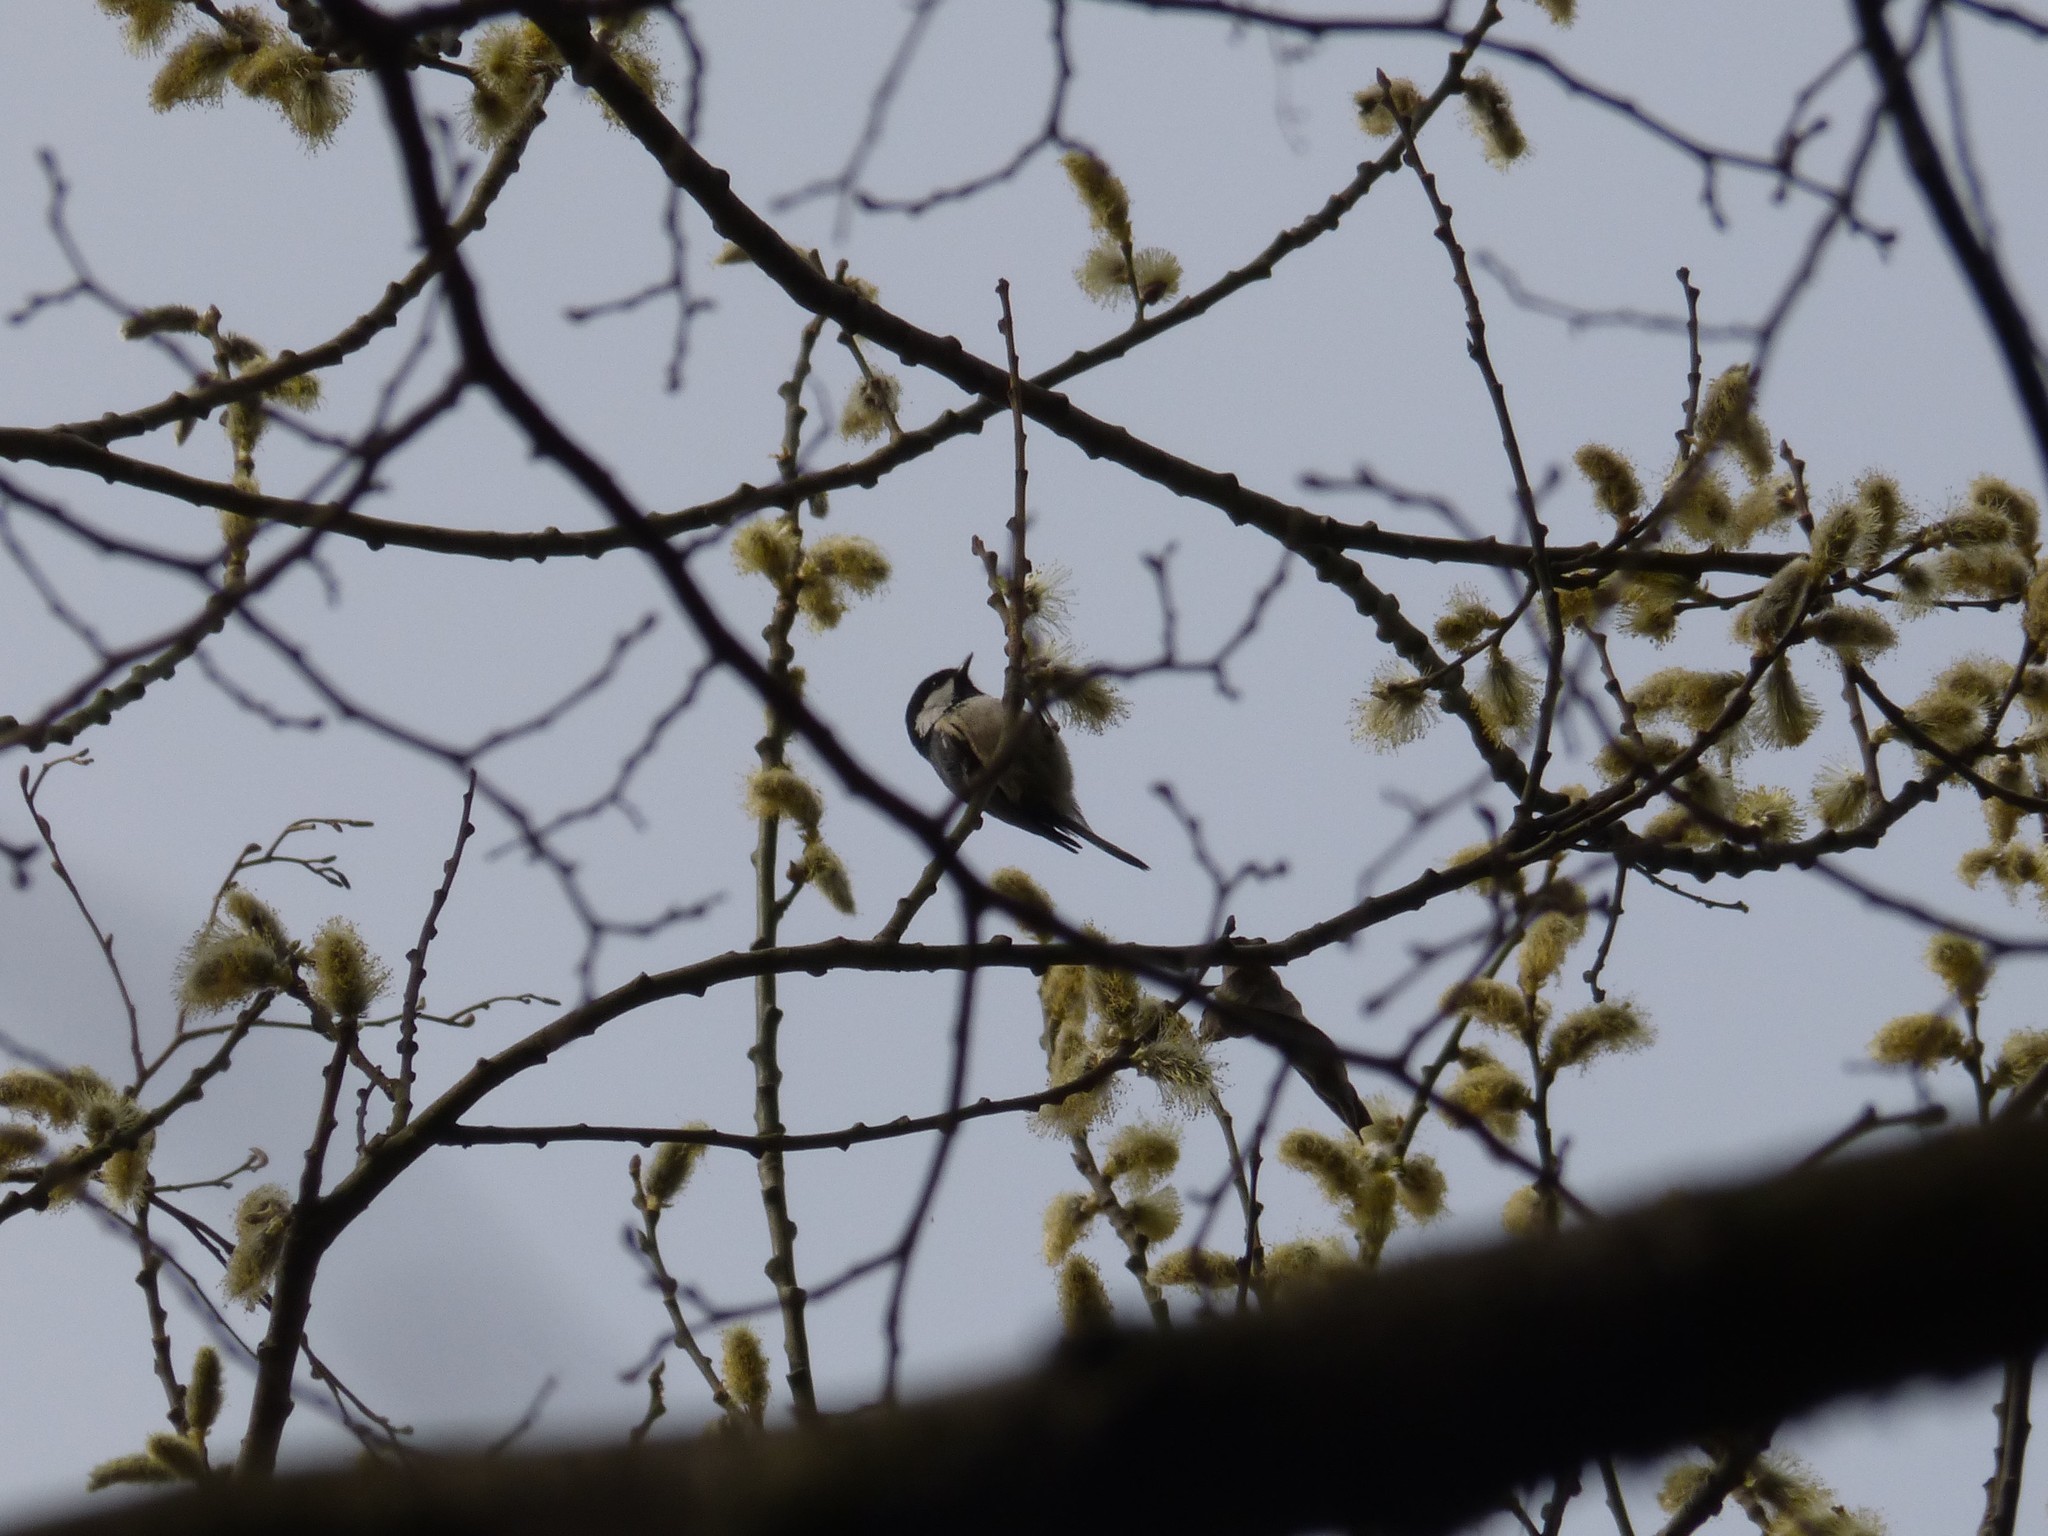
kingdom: Animalia
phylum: Chordata
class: Aves
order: Passeriformes
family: Paridae
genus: Periparus
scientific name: Periparus ater
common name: Coal tit
